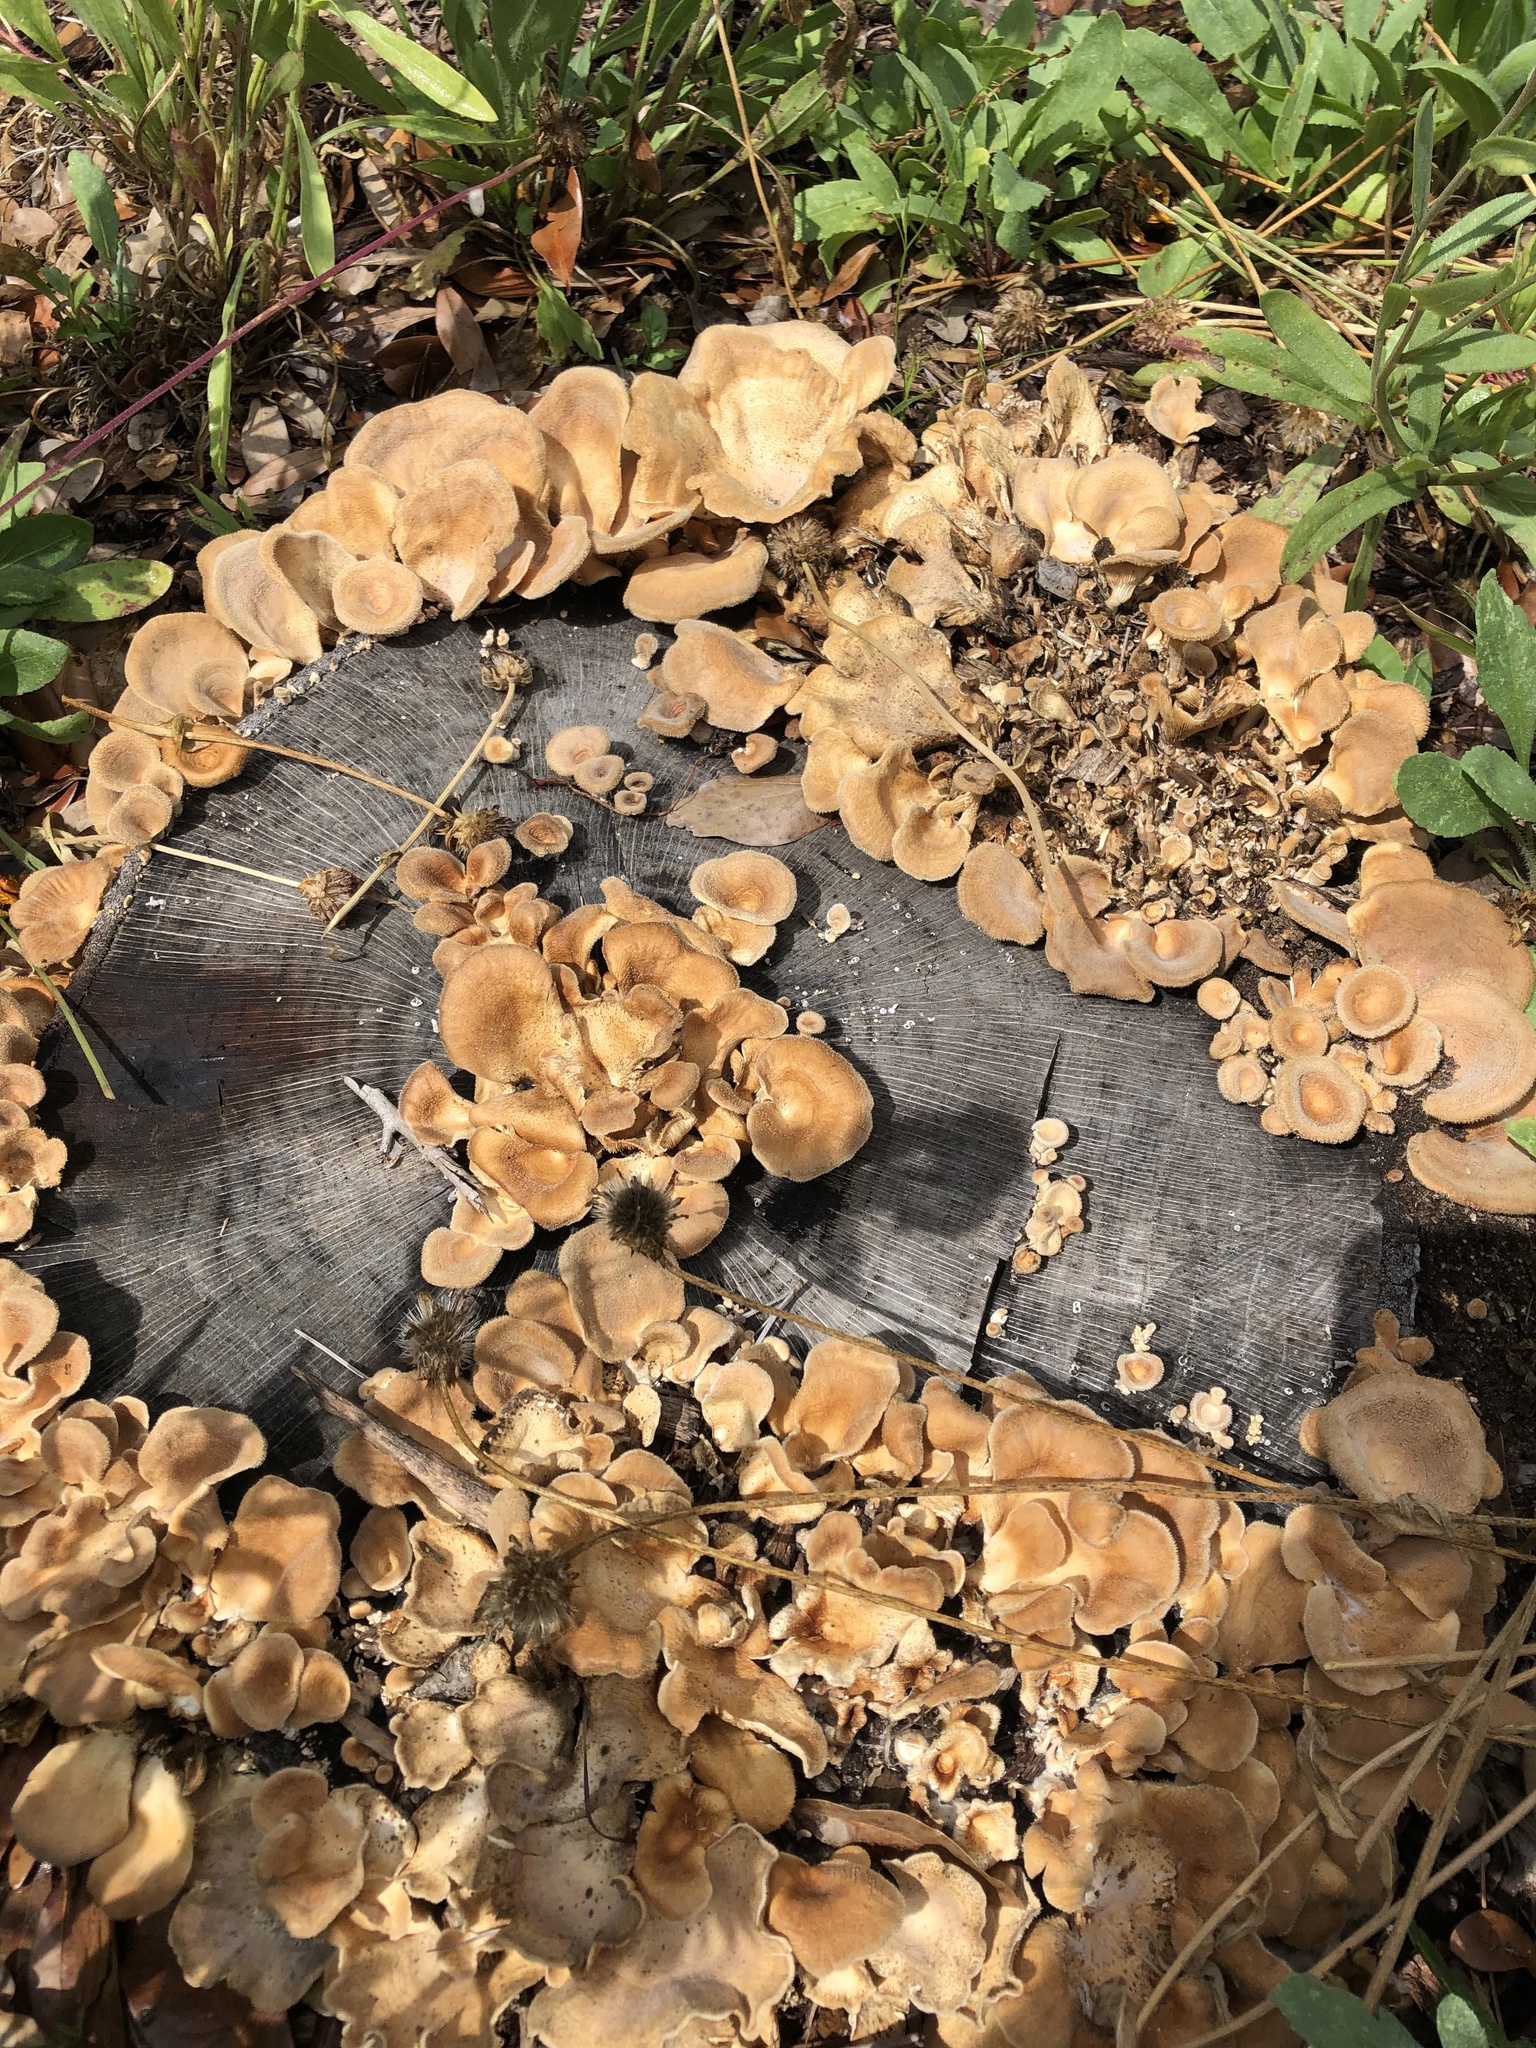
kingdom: Fungi
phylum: Basidiomycota
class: Agaricomycetes
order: Polyporales
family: Panaceae
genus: Panus
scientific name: Panus neostrigosus
